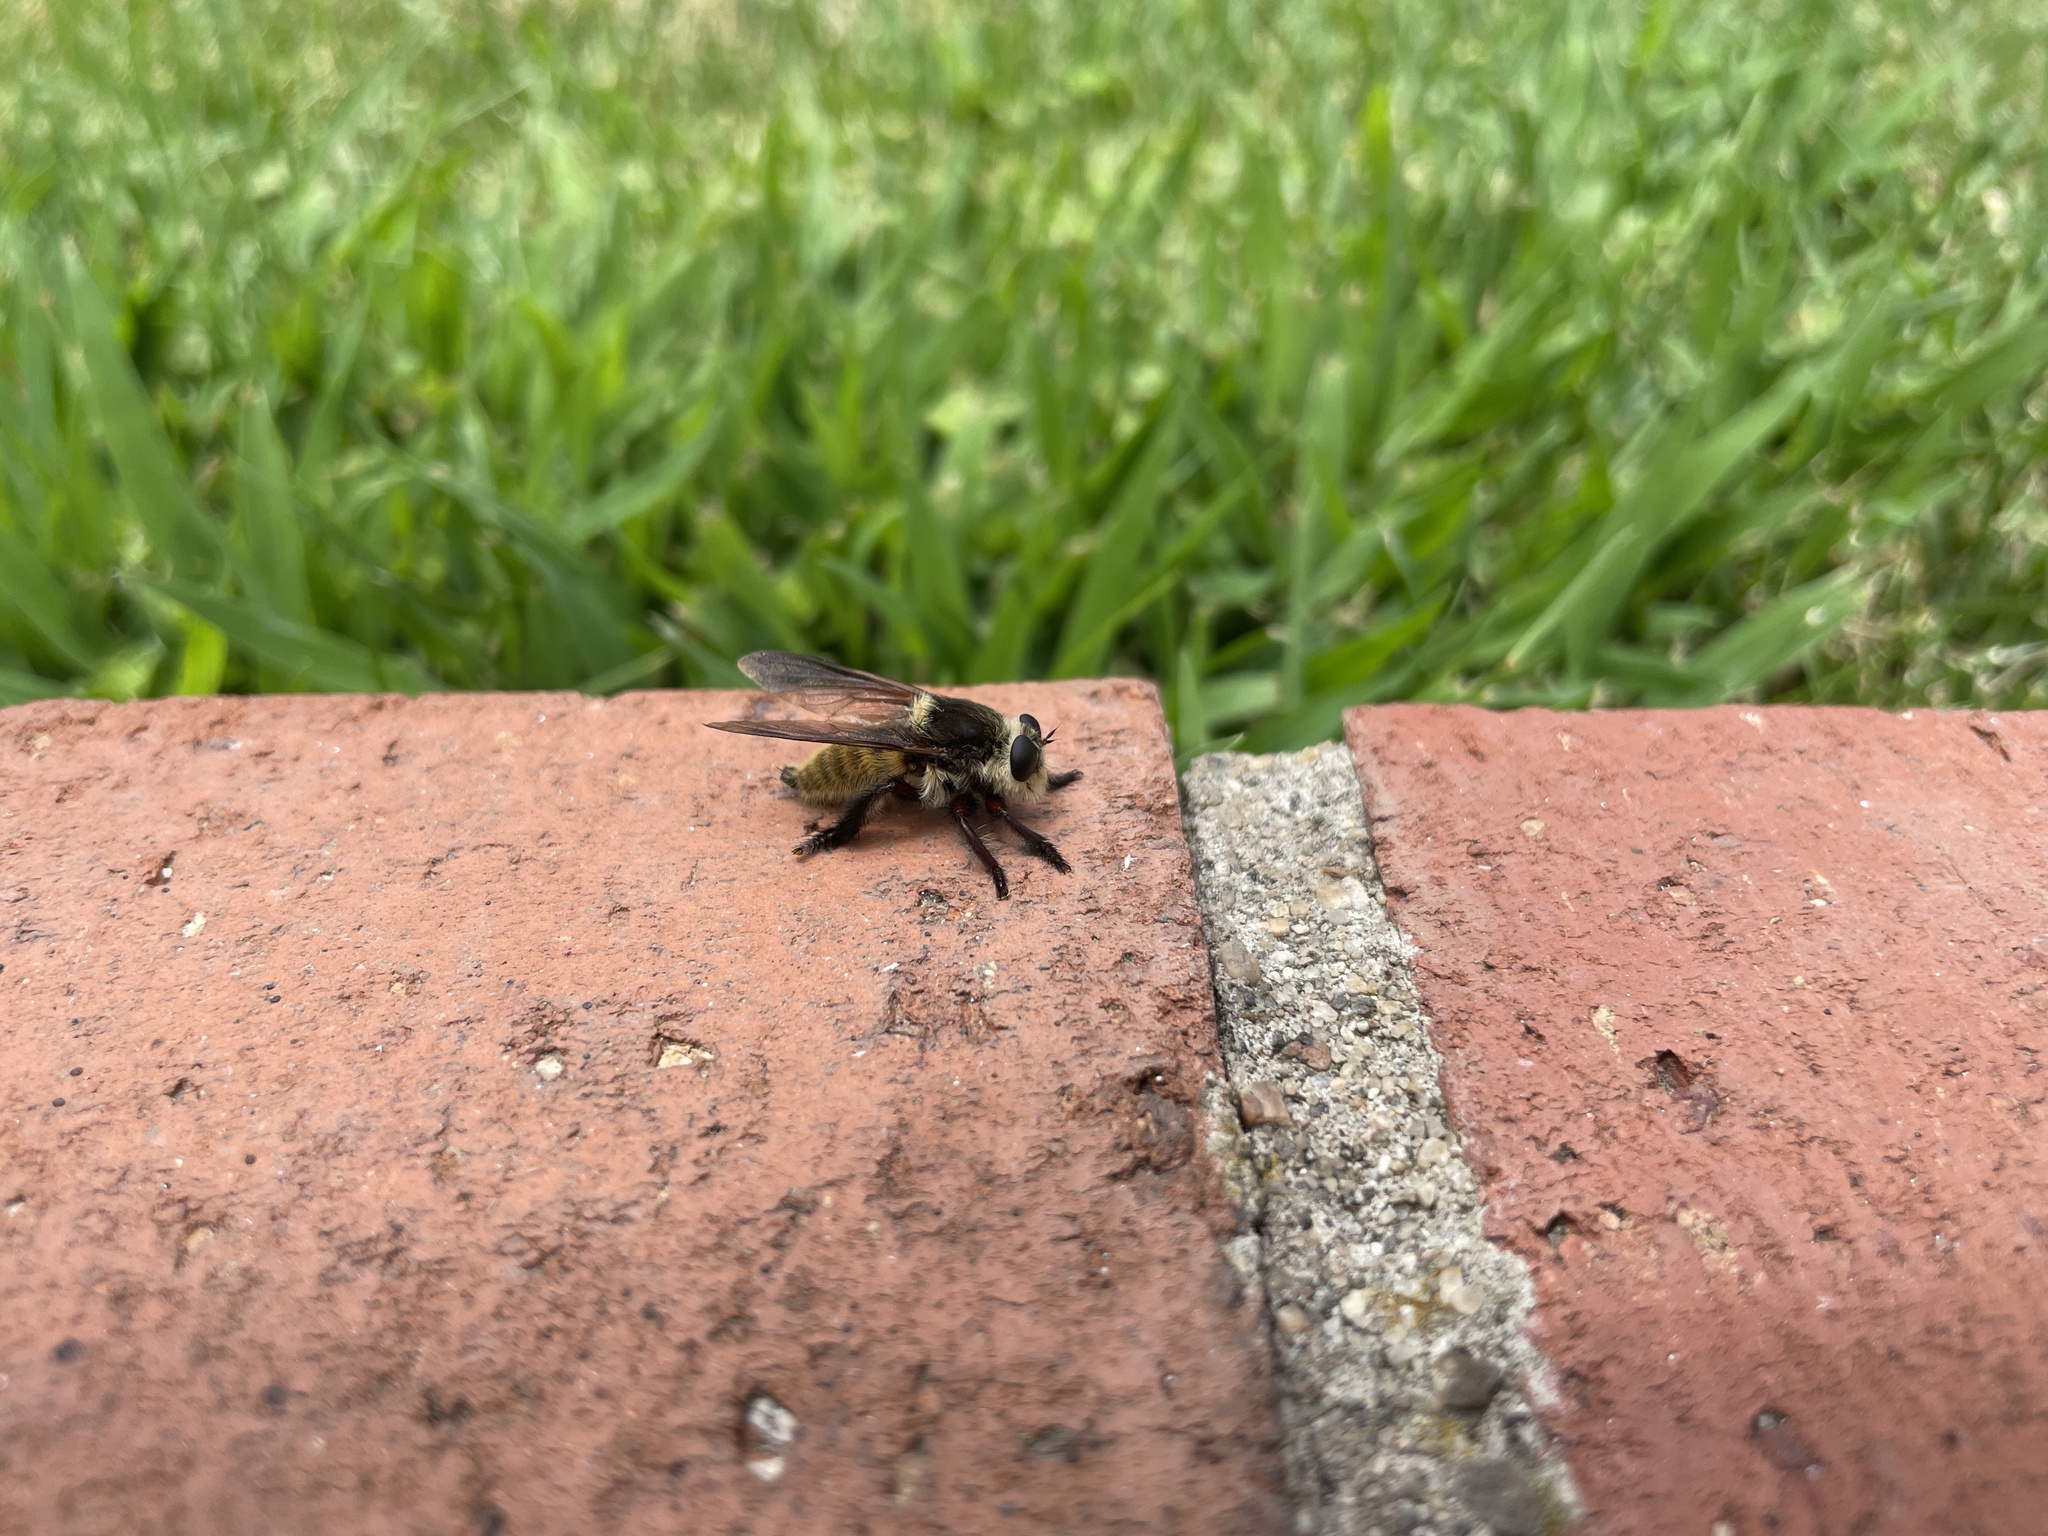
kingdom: Animalia
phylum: Arthropoda
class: Insecta
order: Diptera
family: Asilidae
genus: Mallophora
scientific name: Mallophora fautrix
